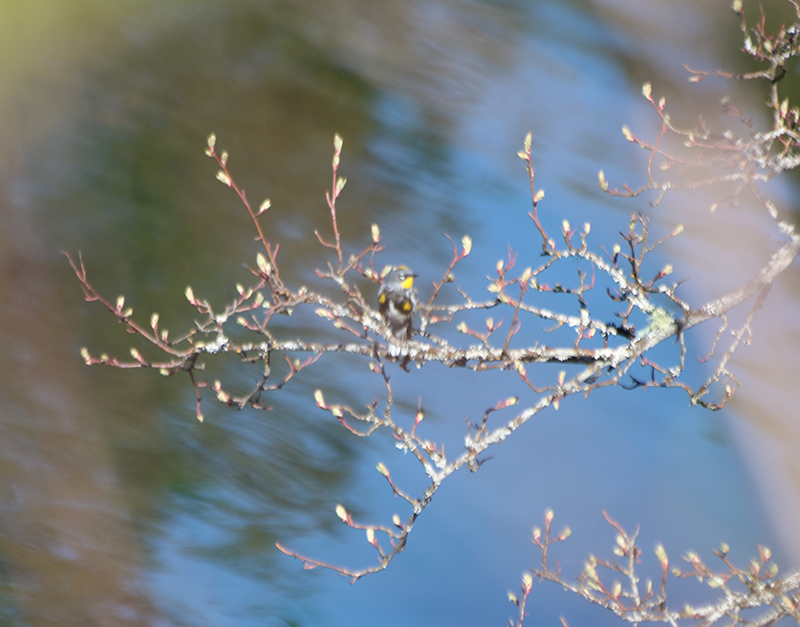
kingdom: Animalia
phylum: Chordata
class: Aves
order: Passeriformes
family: Parulidae
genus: Setophaga
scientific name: Setophaga coronata
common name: Myrtle warbler
